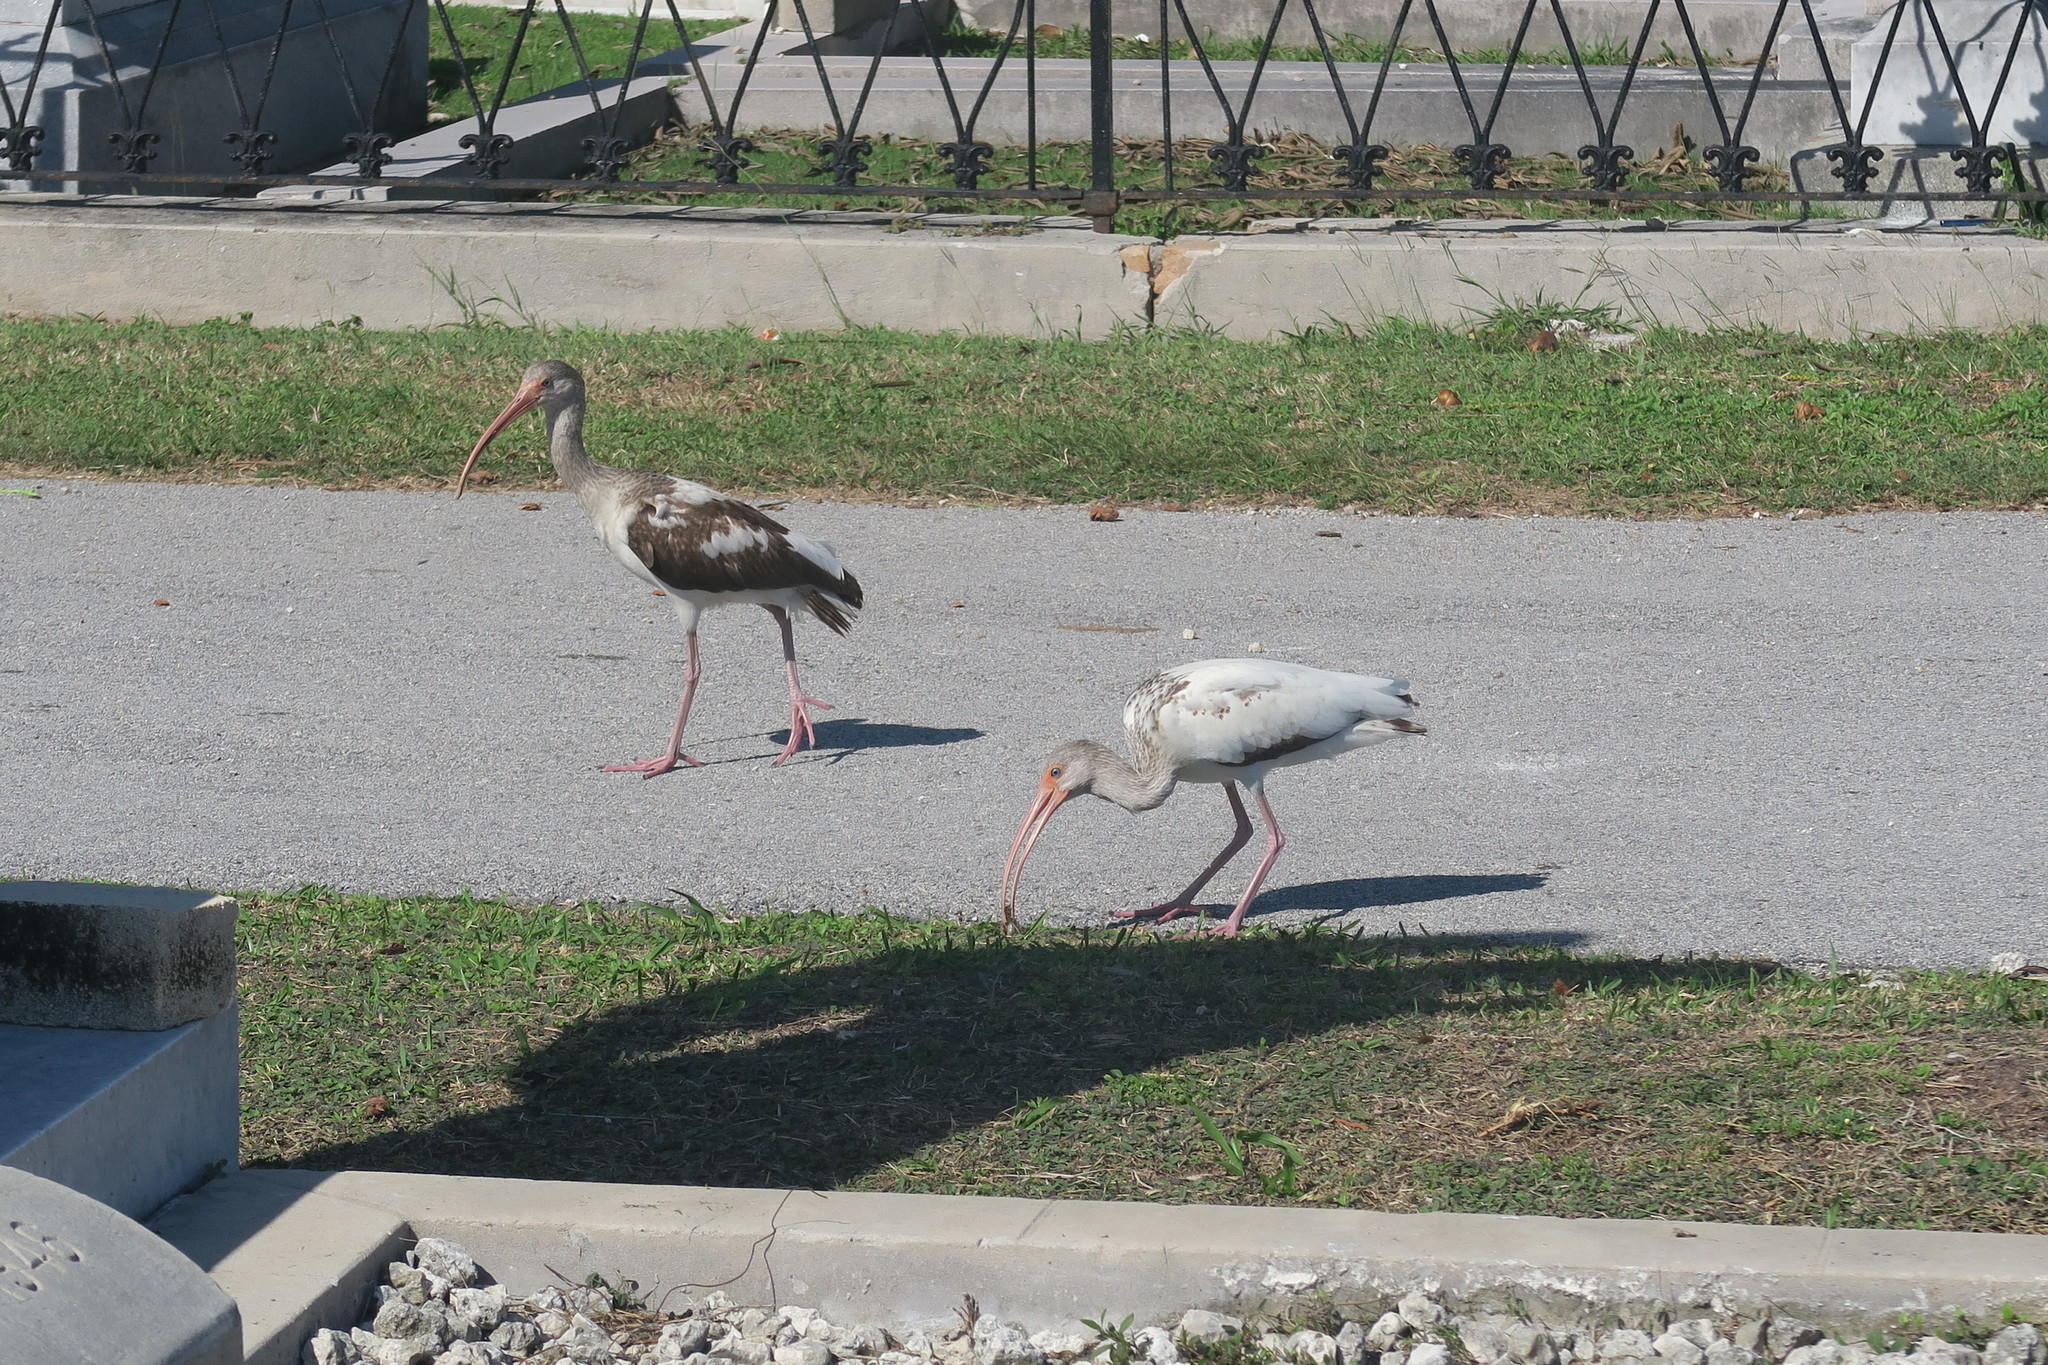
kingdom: Animalia
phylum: Chordata
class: Aves
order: Pelecaniformes
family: Threskiornithidae
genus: Eudocimus
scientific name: Eudocimus albus
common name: White ibis
